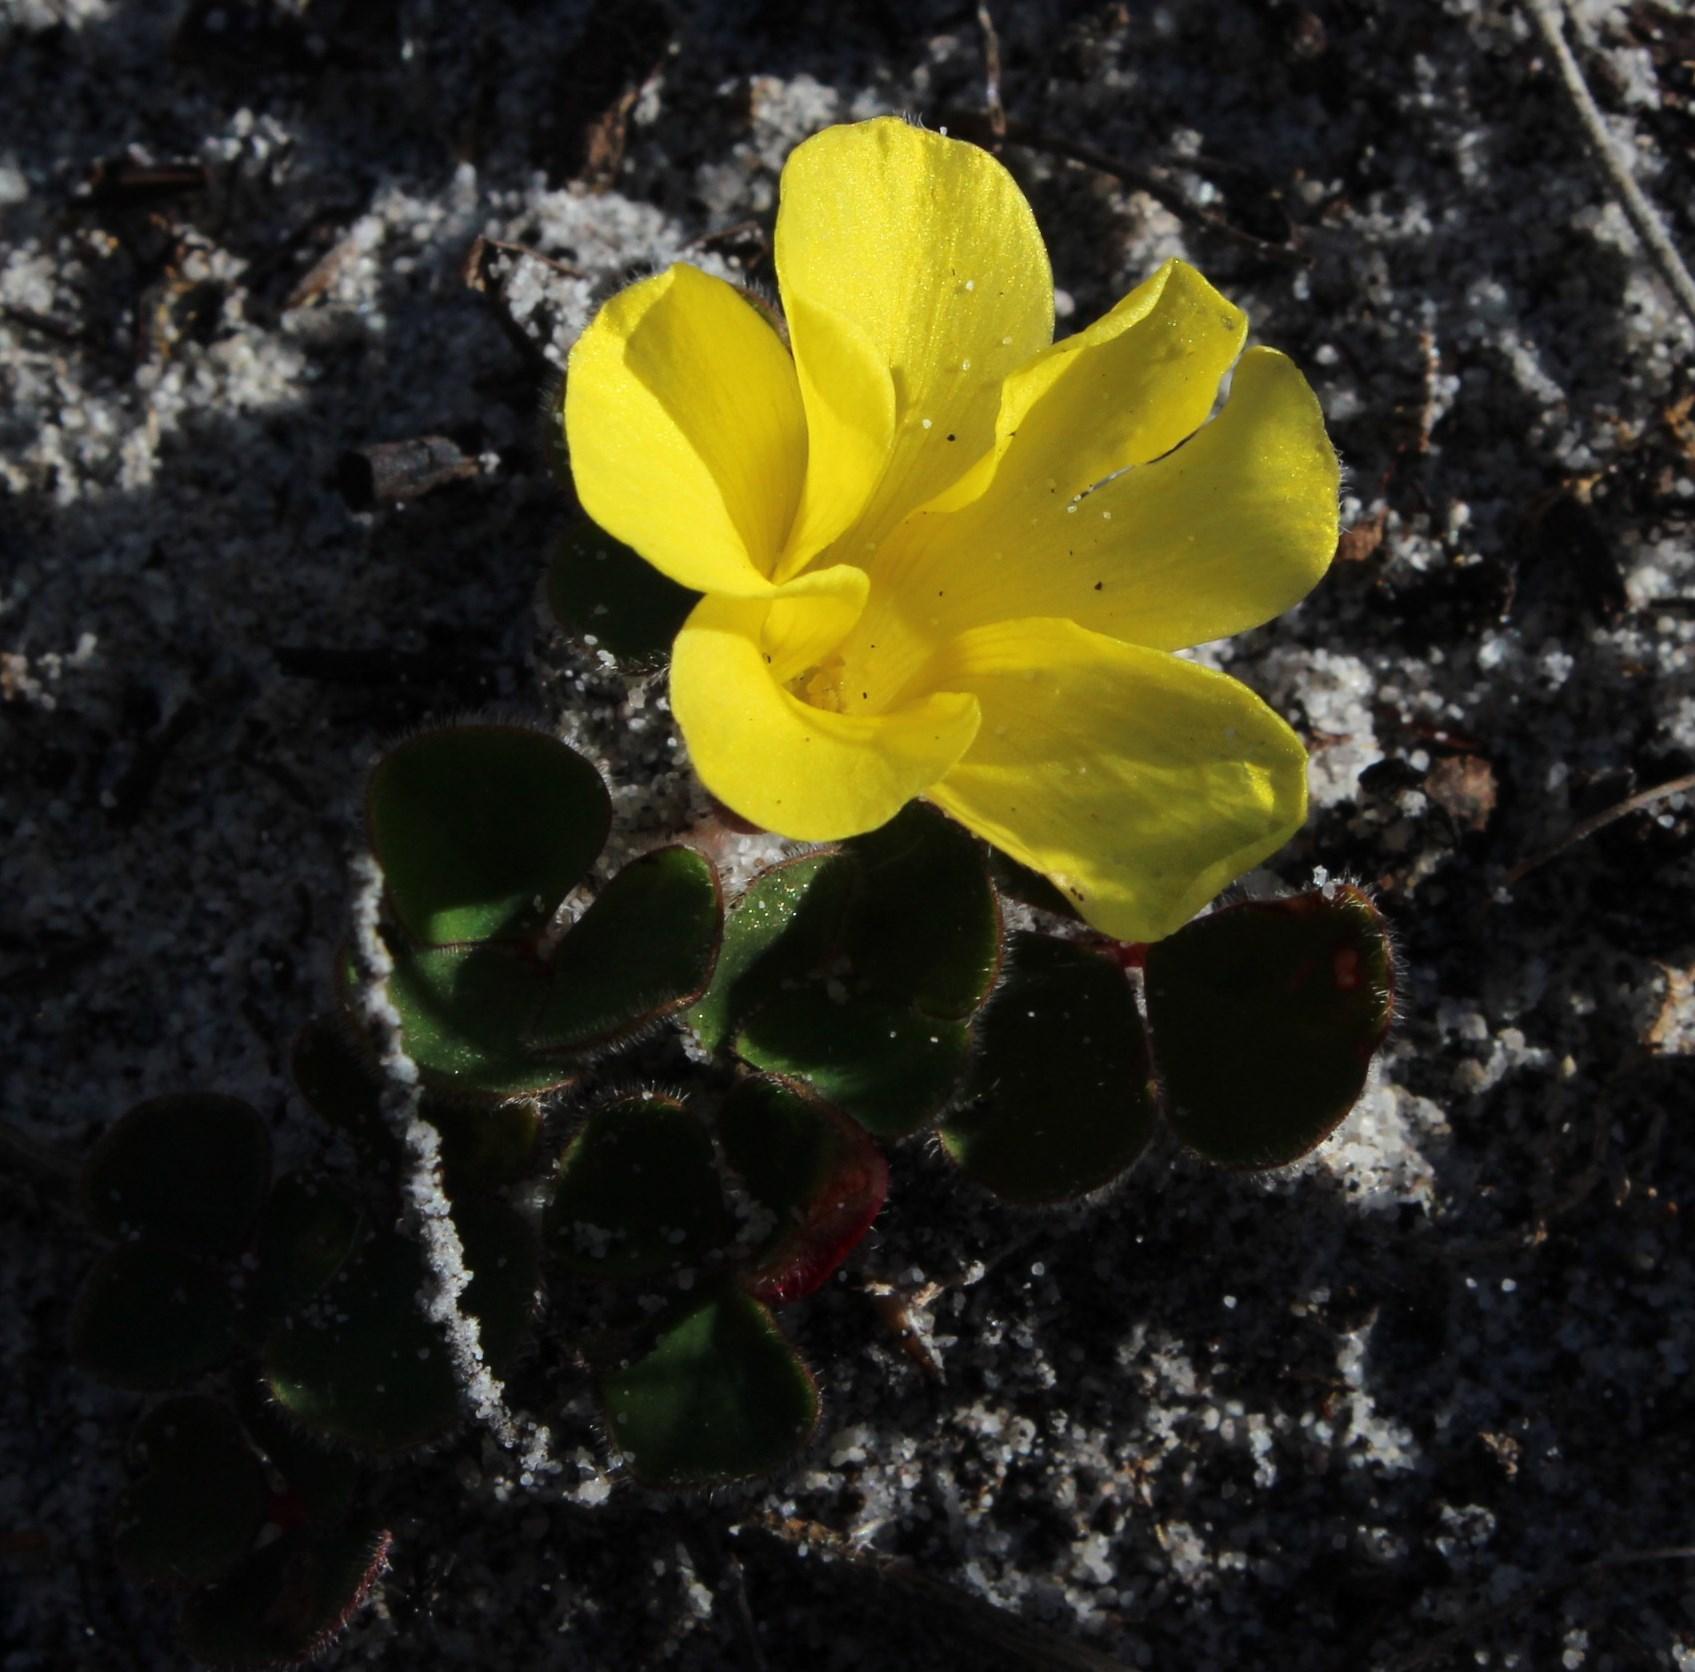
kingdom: Plantae
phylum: Tracheophyta
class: Magnoliopsida
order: Oxalidales
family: Oxalidaceae
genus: Oxalis
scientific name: Oxalis luteola
